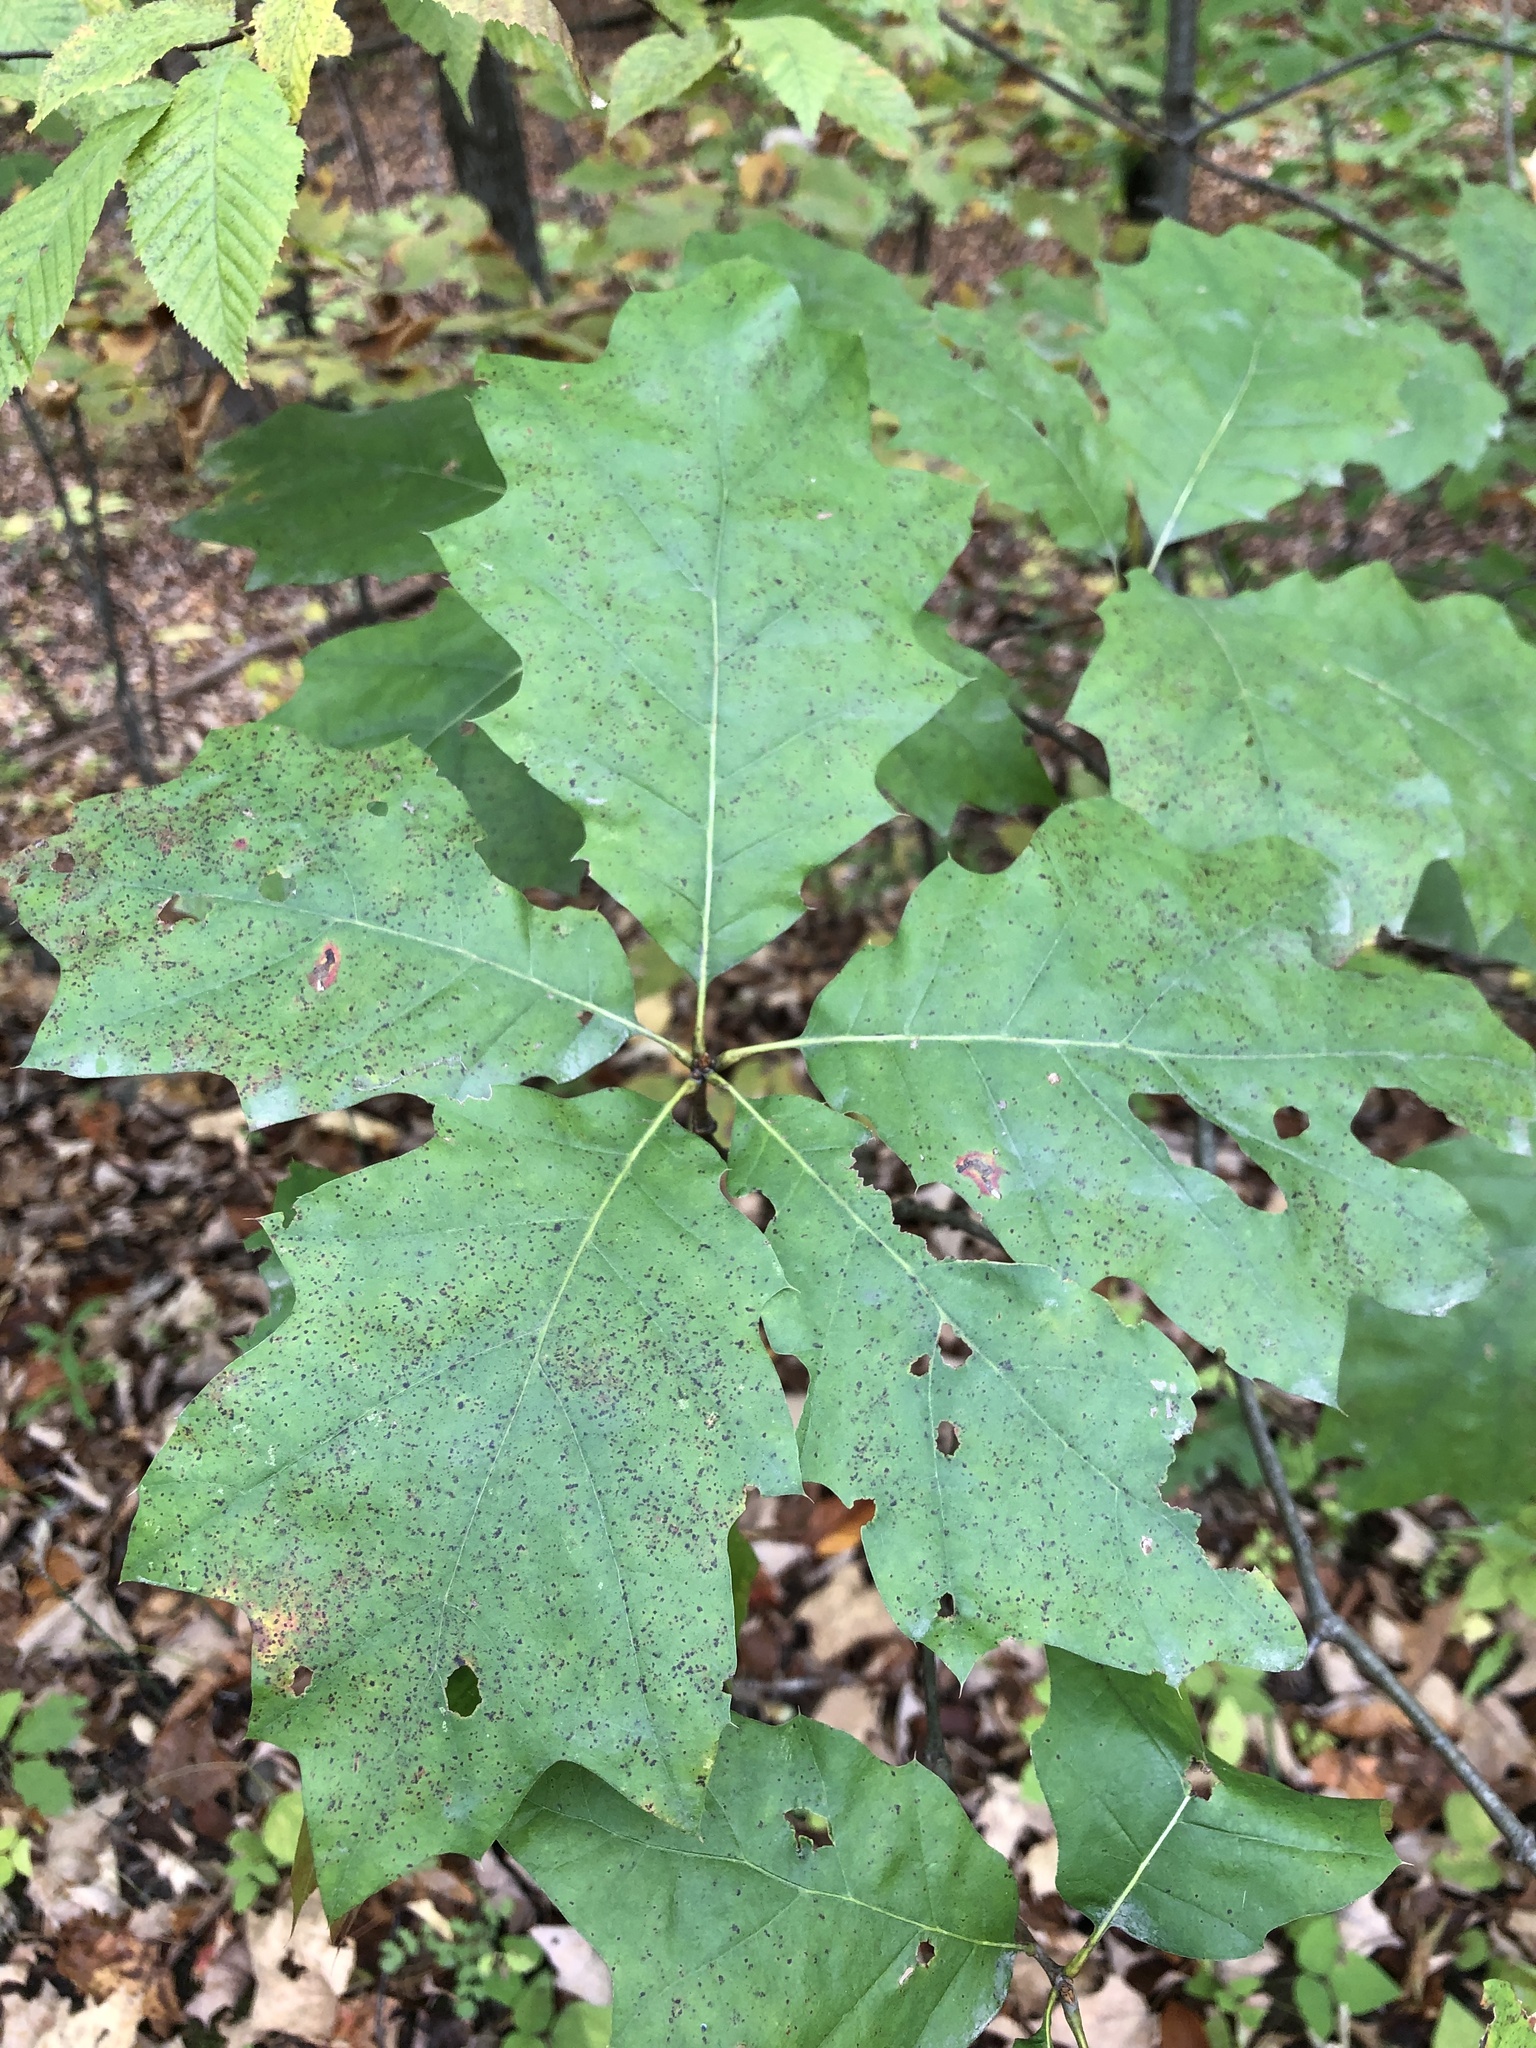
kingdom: Plantae
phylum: Tracheophyta
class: Magnoliopsida
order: Fagales
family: Fagaceae
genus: Quercus
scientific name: Quercus rubra
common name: Red oak
